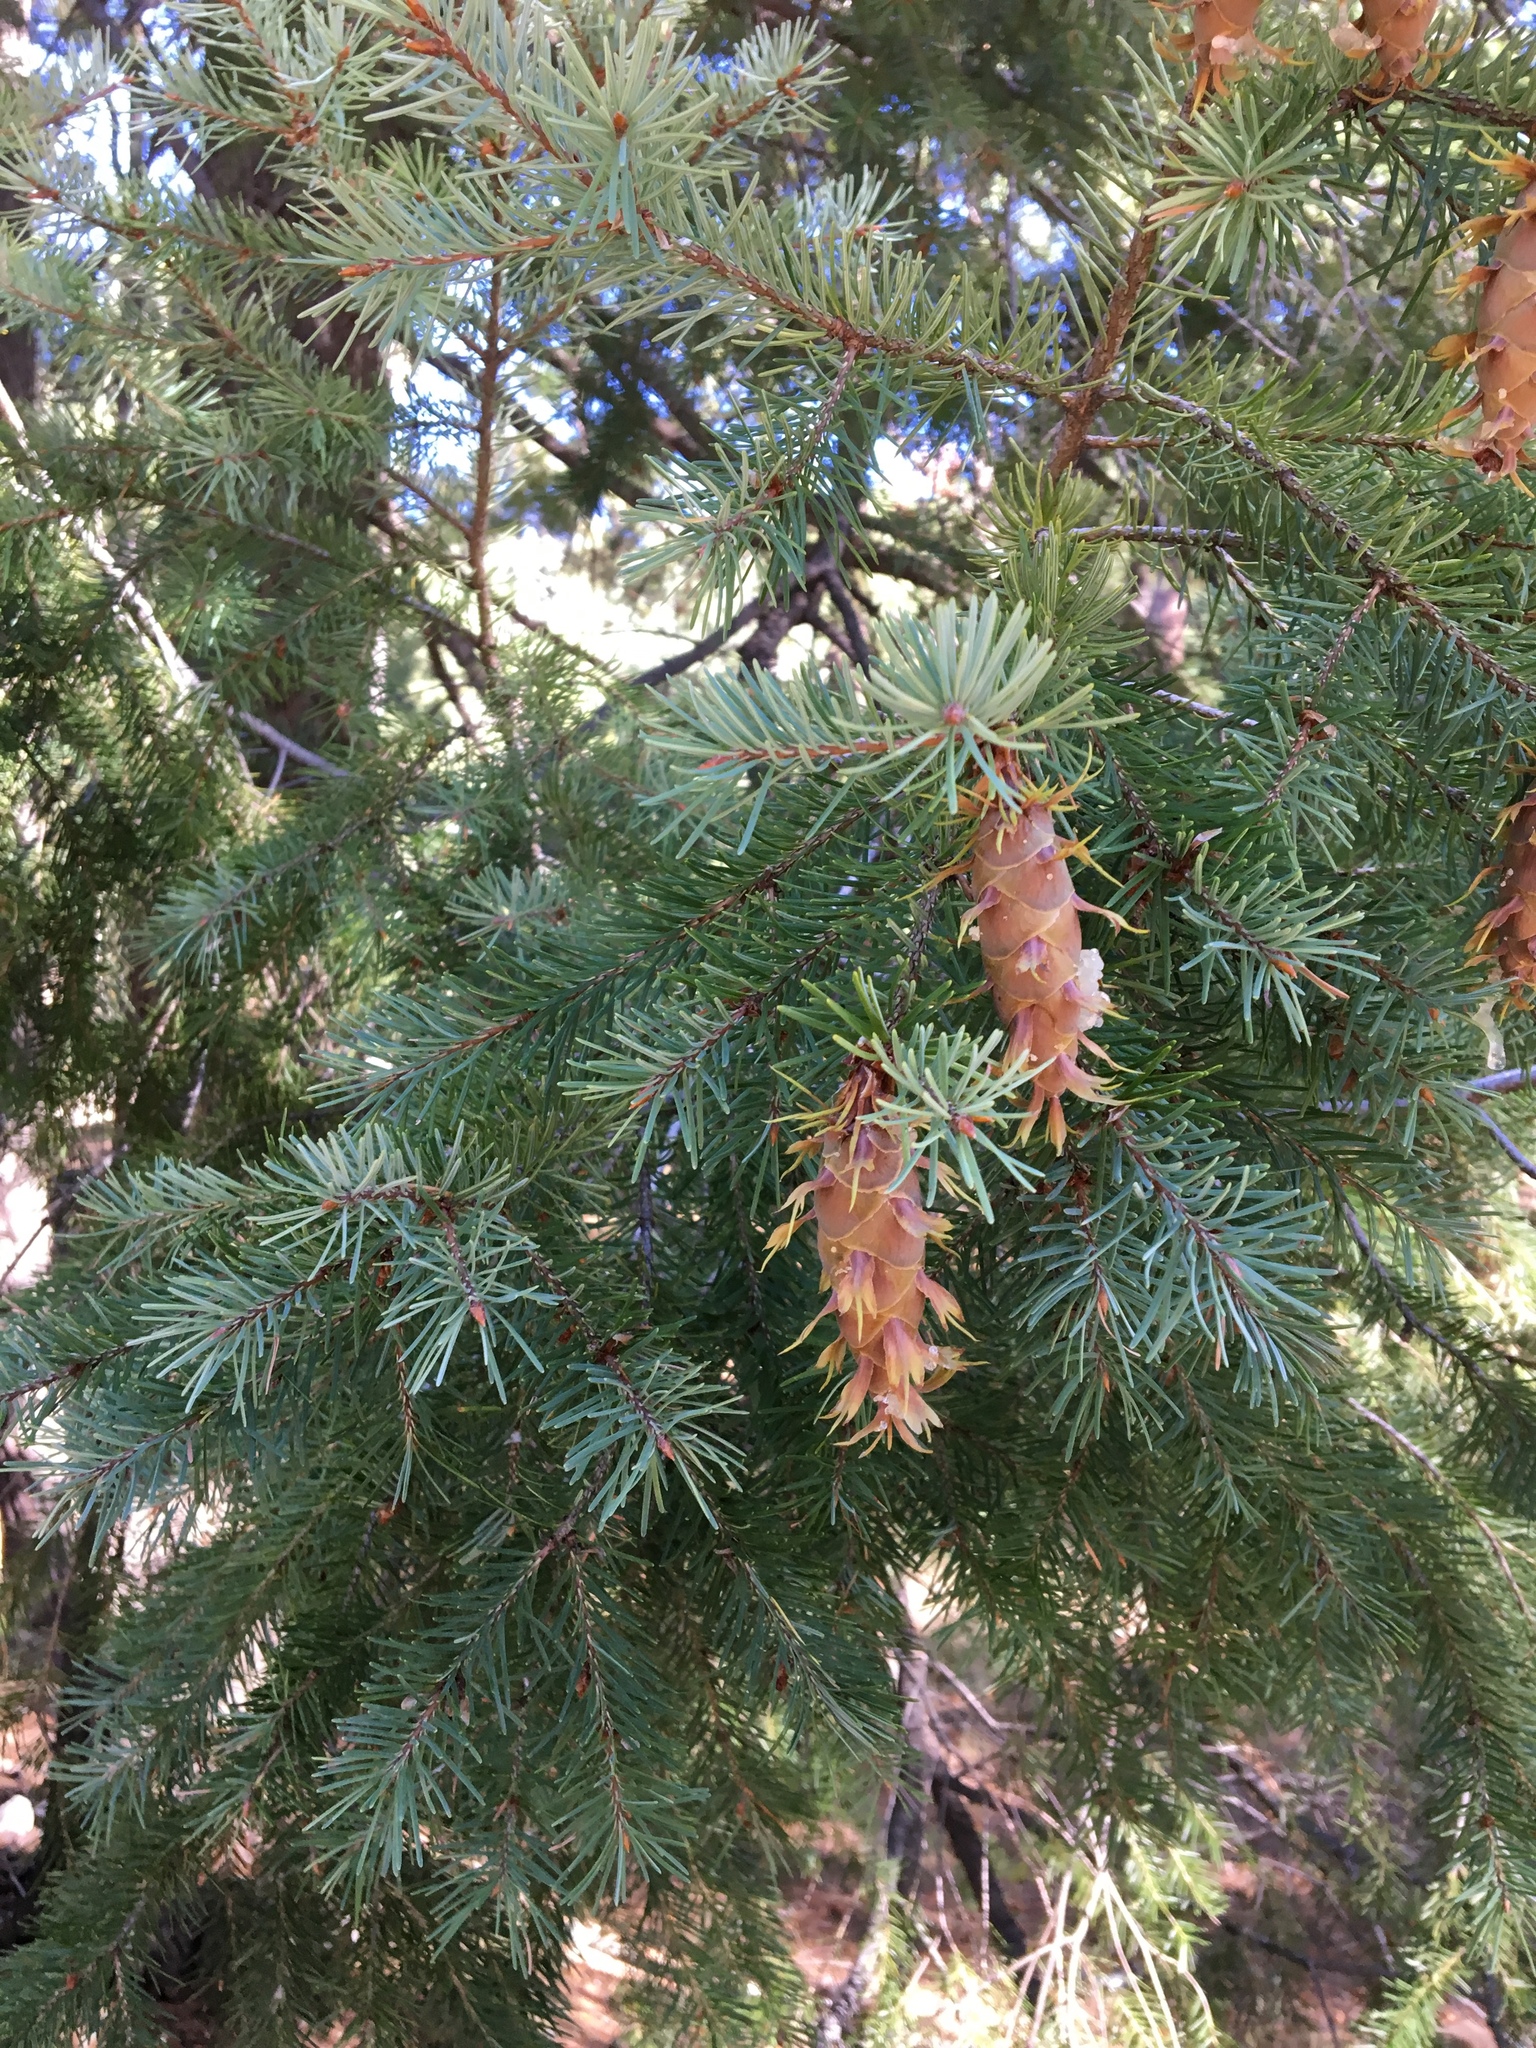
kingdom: Plantae
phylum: Tracheophyta
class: Pinopsida
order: Pinales
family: Pinaceae
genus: Pseudotsuga
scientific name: Pseudotsuga menziesii
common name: Douglas fir
